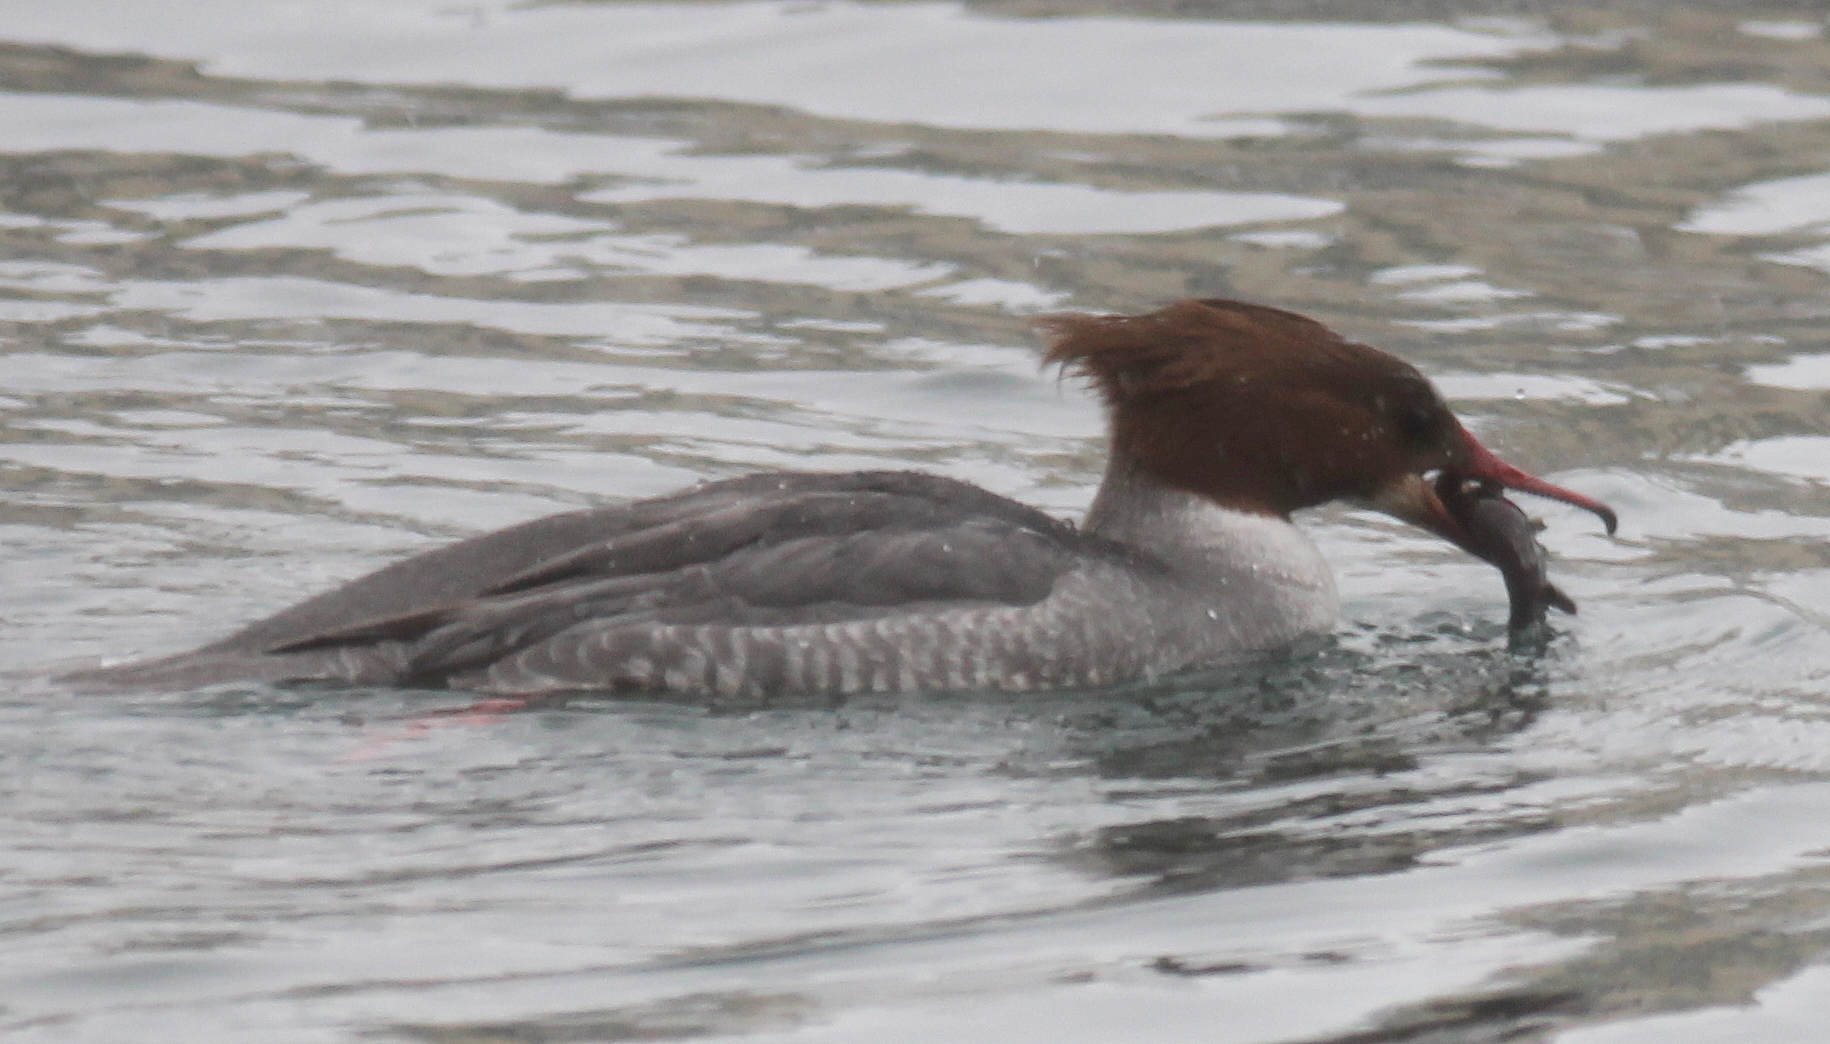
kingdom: Animalia
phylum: Chordata
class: Aves
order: Anseriformes
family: Anatidae
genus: Mergus
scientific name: Mergus merganser
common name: Common merganser
